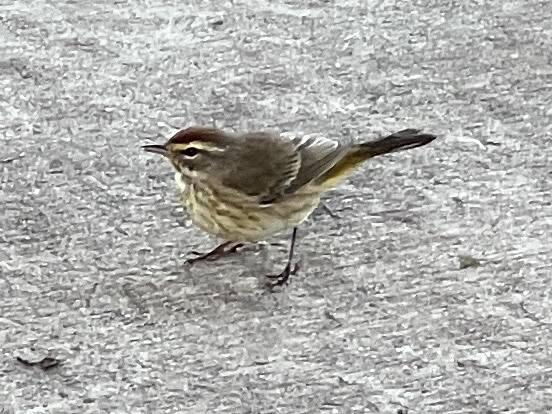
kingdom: Animalia
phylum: Chordata
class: Aves
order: Passeriformes
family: Parulidae
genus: Setophaga
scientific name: Setophaga palmarum
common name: Palm warbler
